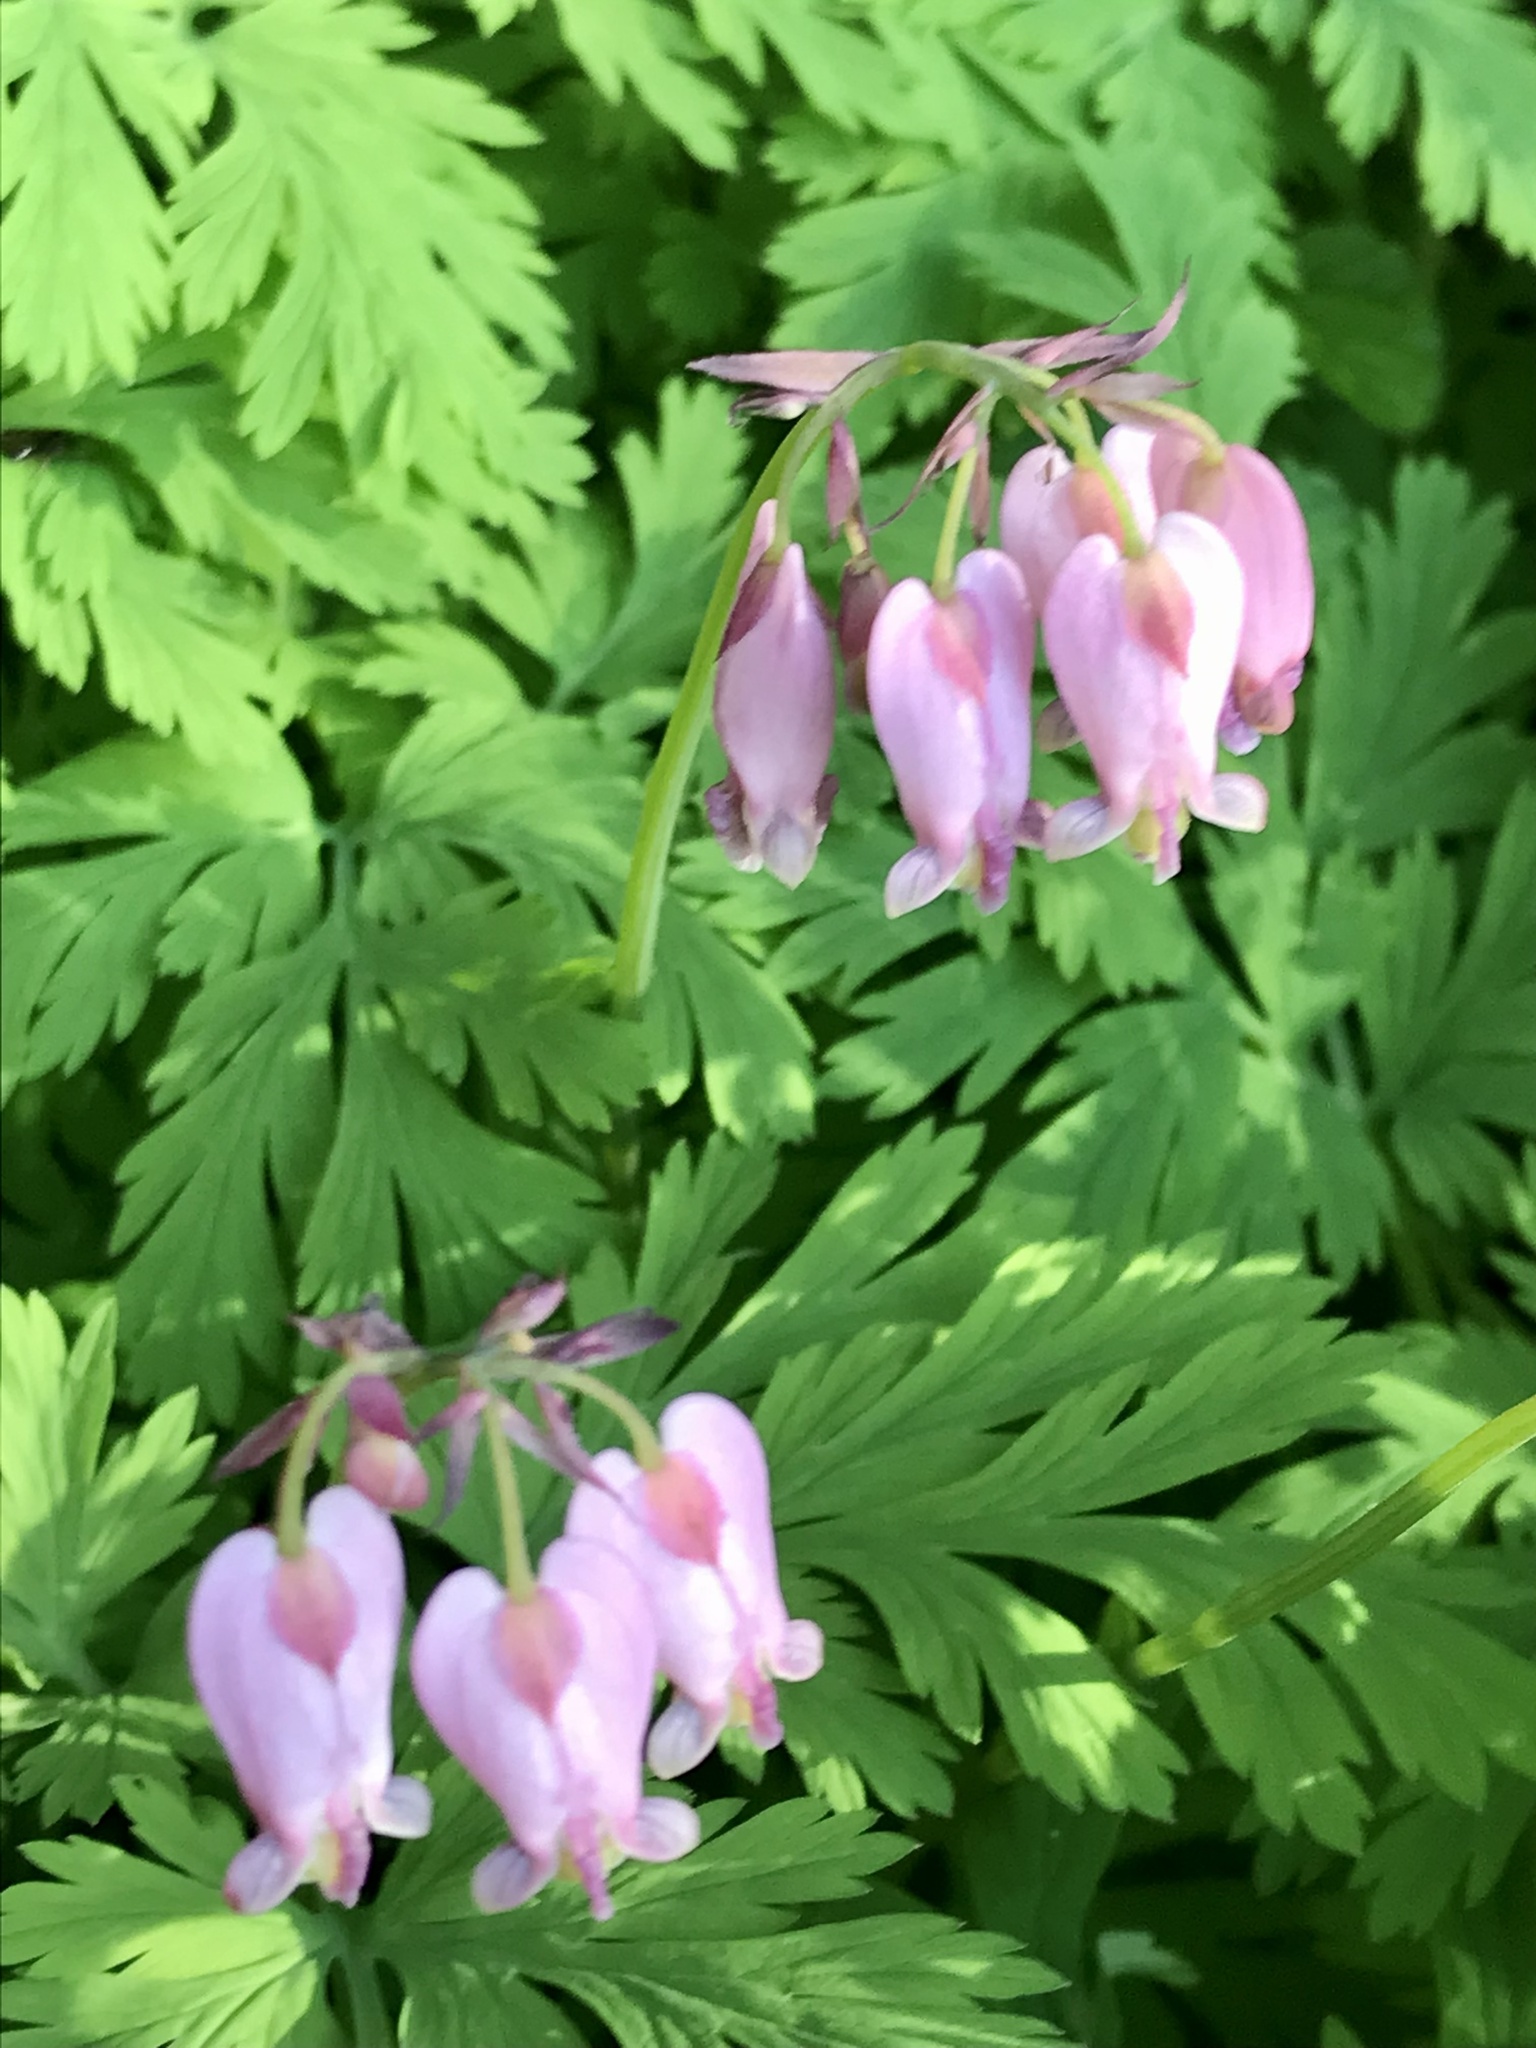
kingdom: Plantae
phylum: Tracheophyta
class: Magnoliopsida
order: Ranunculales
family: Papaveraceae
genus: Dicentra
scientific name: Dicentra formosa
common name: Bleeding-heart
